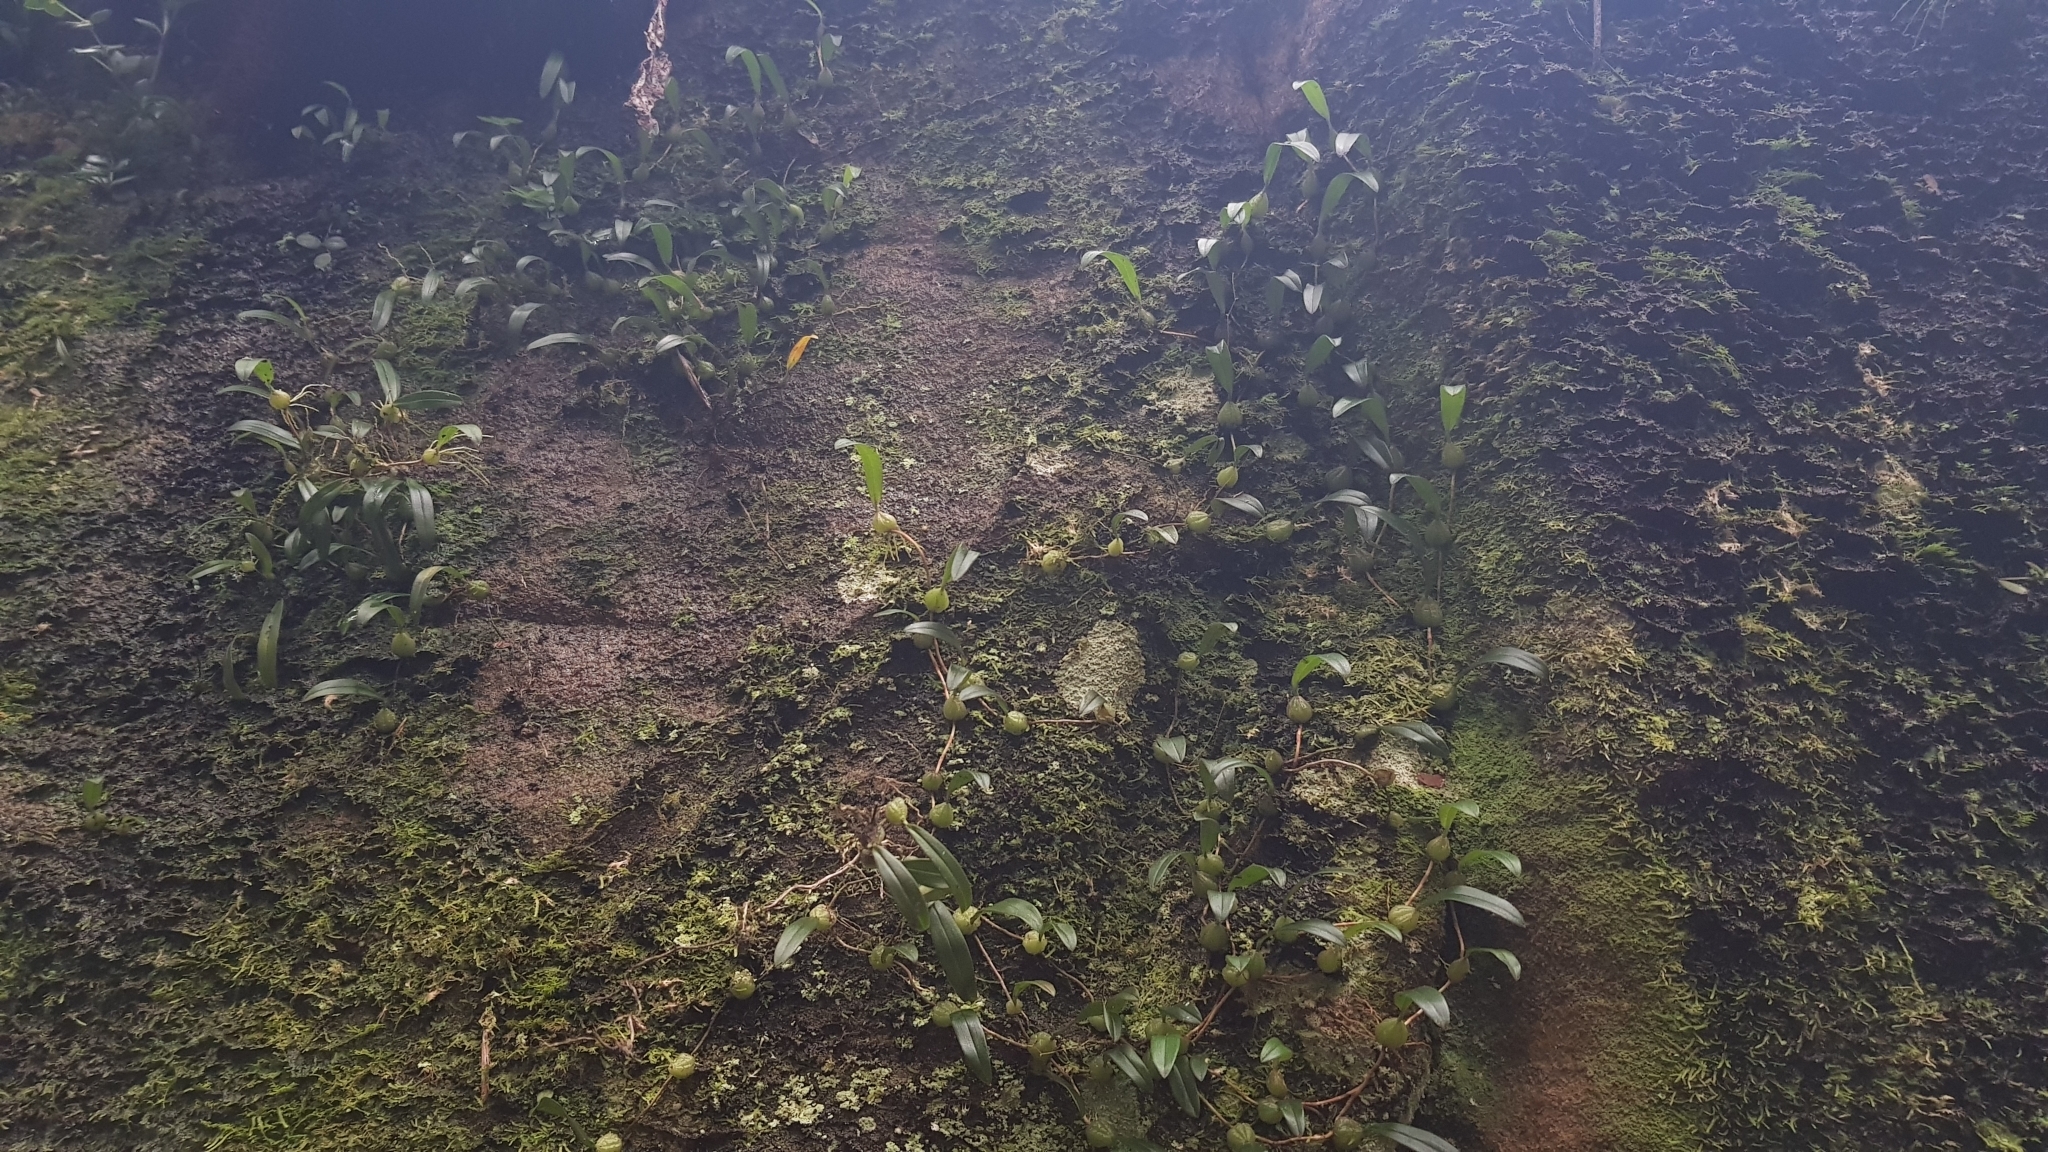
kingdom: Plantae
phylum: Tracheophyta
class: Liliopsida
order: Asparagales
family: Orchidaceae
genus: Bulbophyllum
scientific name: Bulbophyllum exiguum
